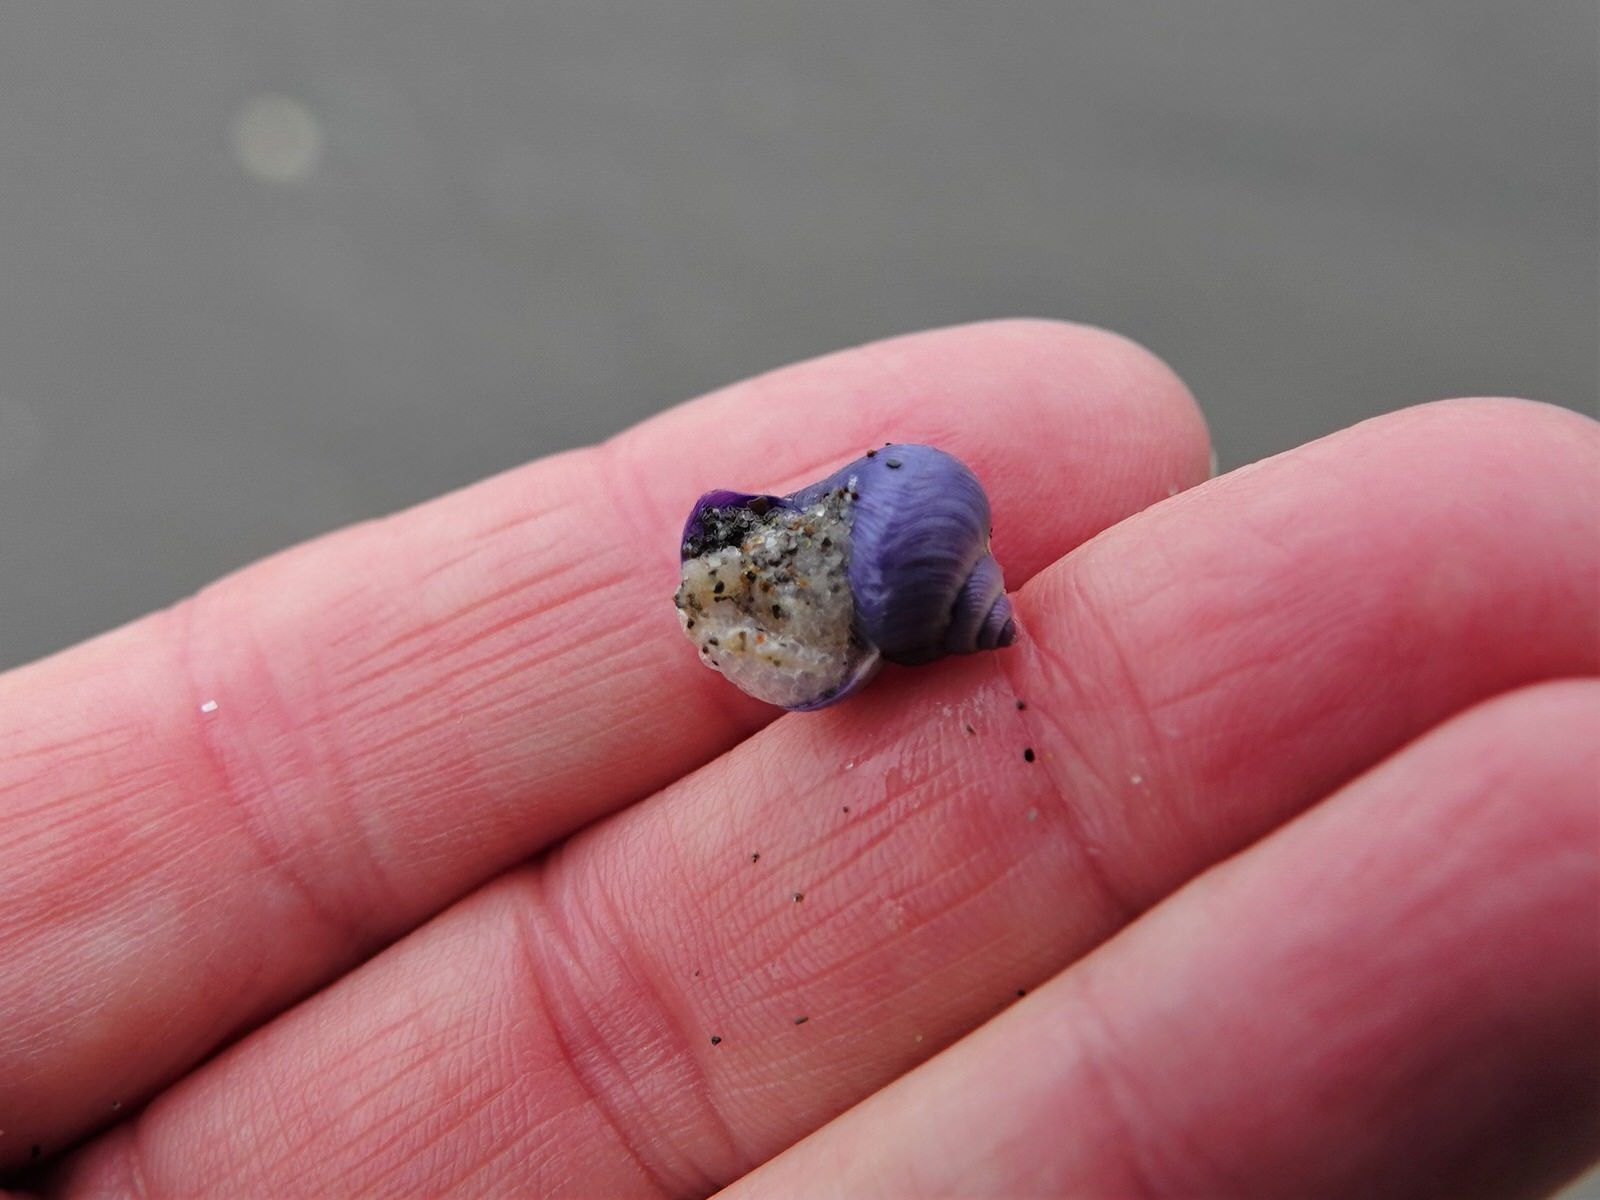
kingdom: Animalia
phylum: Mollusca
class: Gastropoda
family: Epitoniidae
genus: Janthina
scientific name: Janthina exigua
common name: Dwarf janthina
